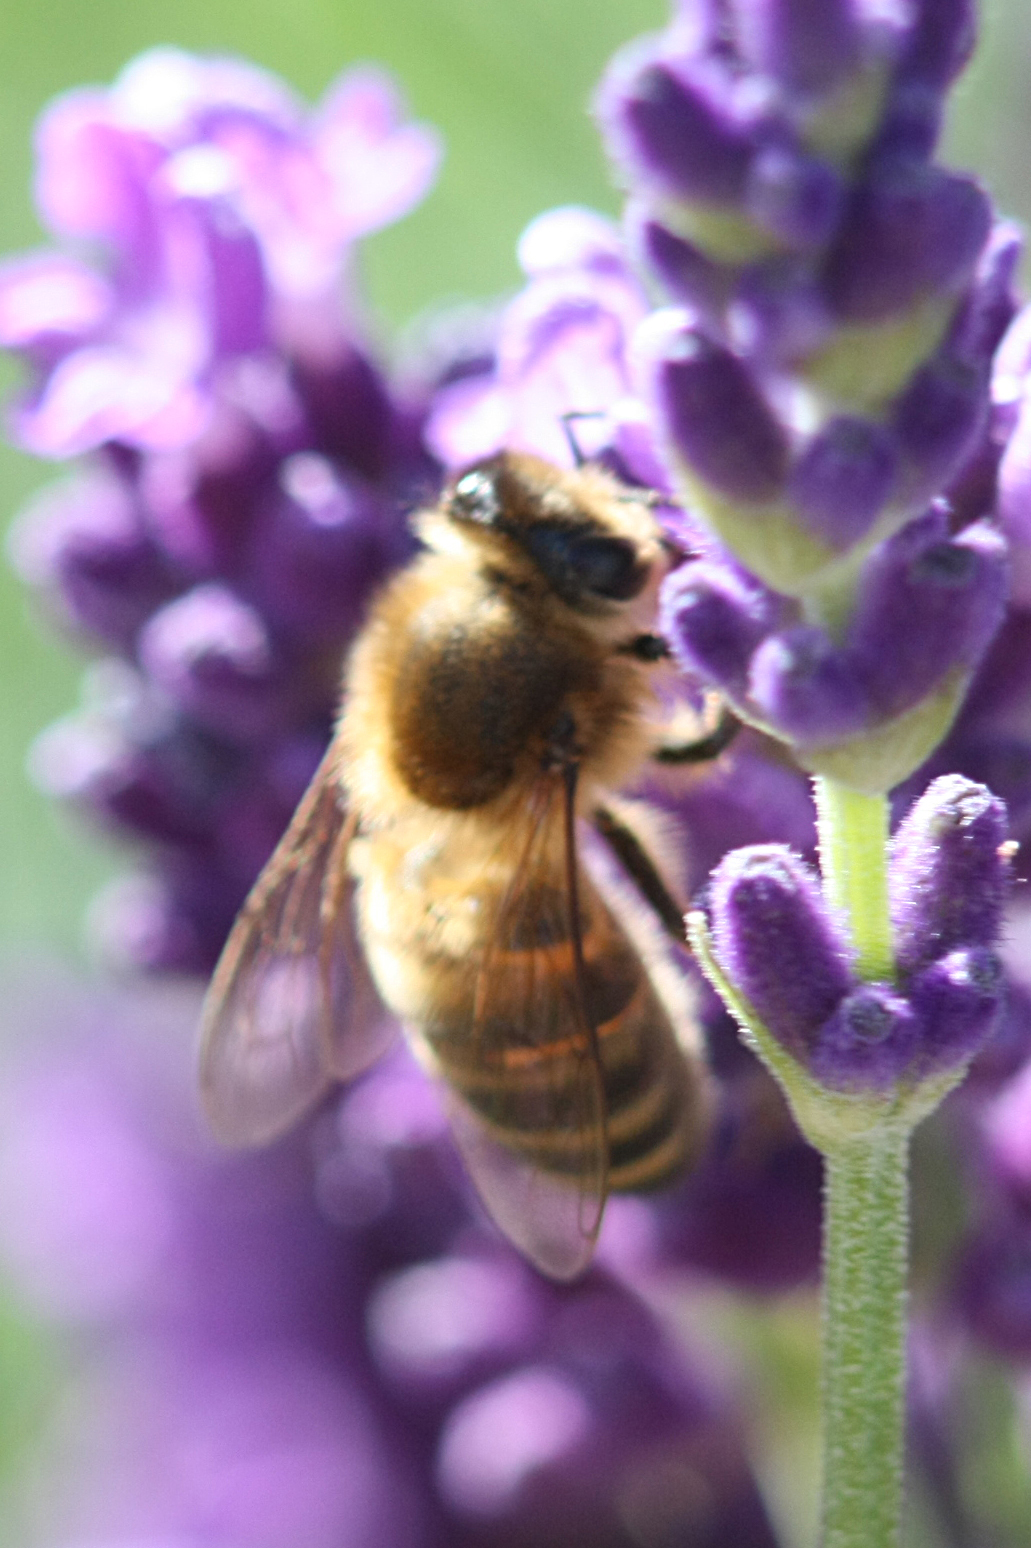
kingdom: Animalia
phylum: Arthropoda
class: Insecta
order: Hymenoptera
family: Apidae
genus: Apis
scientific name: Apis mellifera
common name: Honey bee
